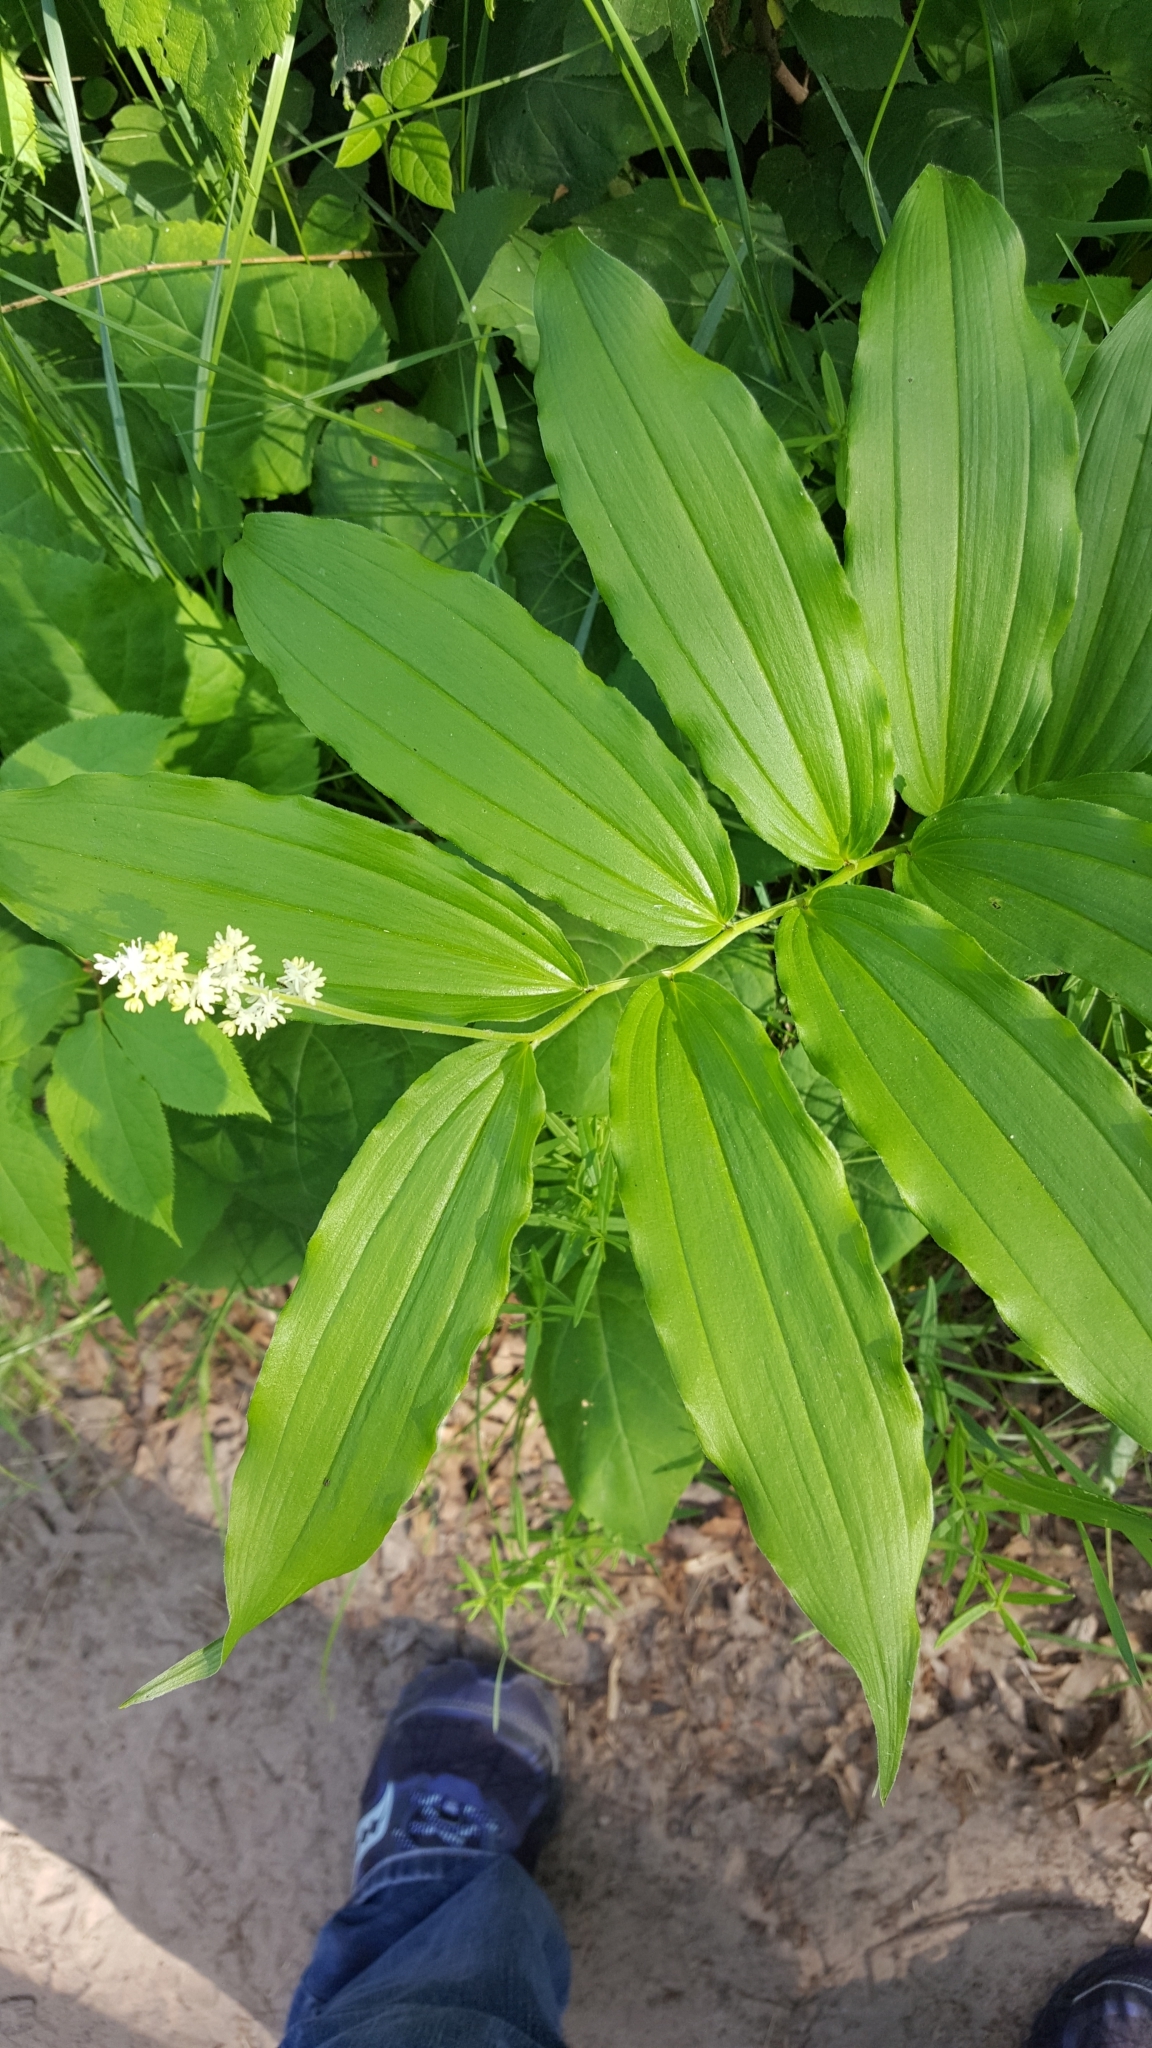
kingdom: Plantae
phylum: Tracheophyta
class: Liliopsida
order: Asparagales
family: Asparagaceae
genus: Maianthemum
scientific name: Maianthemum racemosum
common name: False spikenard
